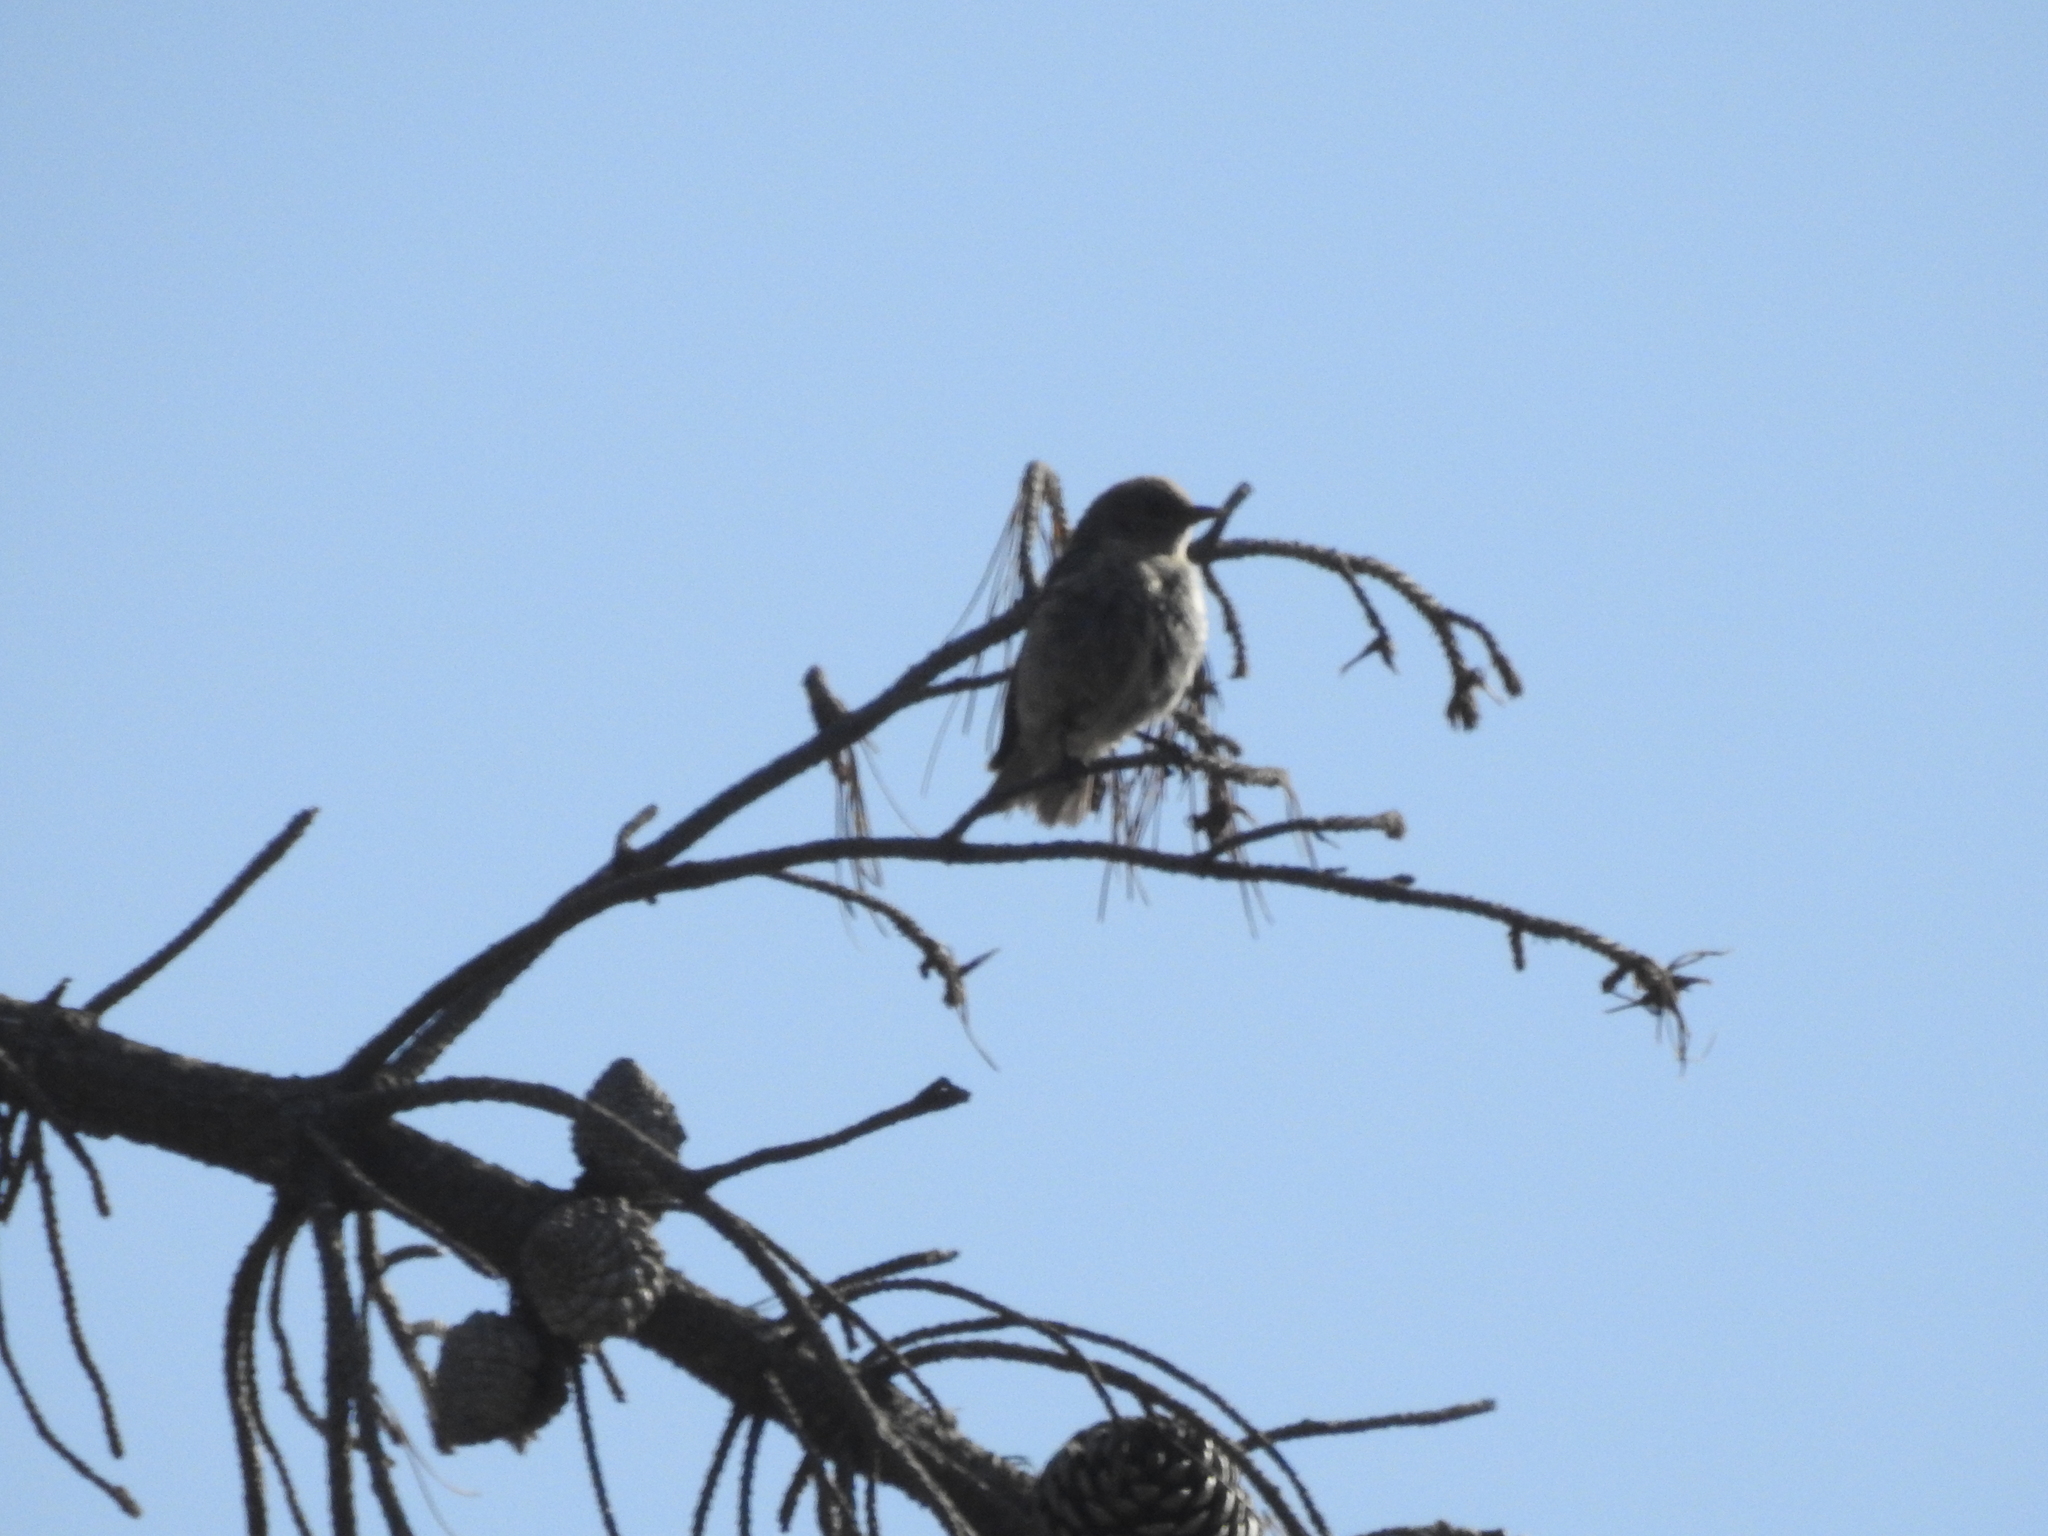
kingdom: Animalia
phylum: Chordata
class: Aves
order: Passeriformes
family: Turdidae
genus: Sialia
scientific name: Sialia mexicana
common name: Western bluebird
